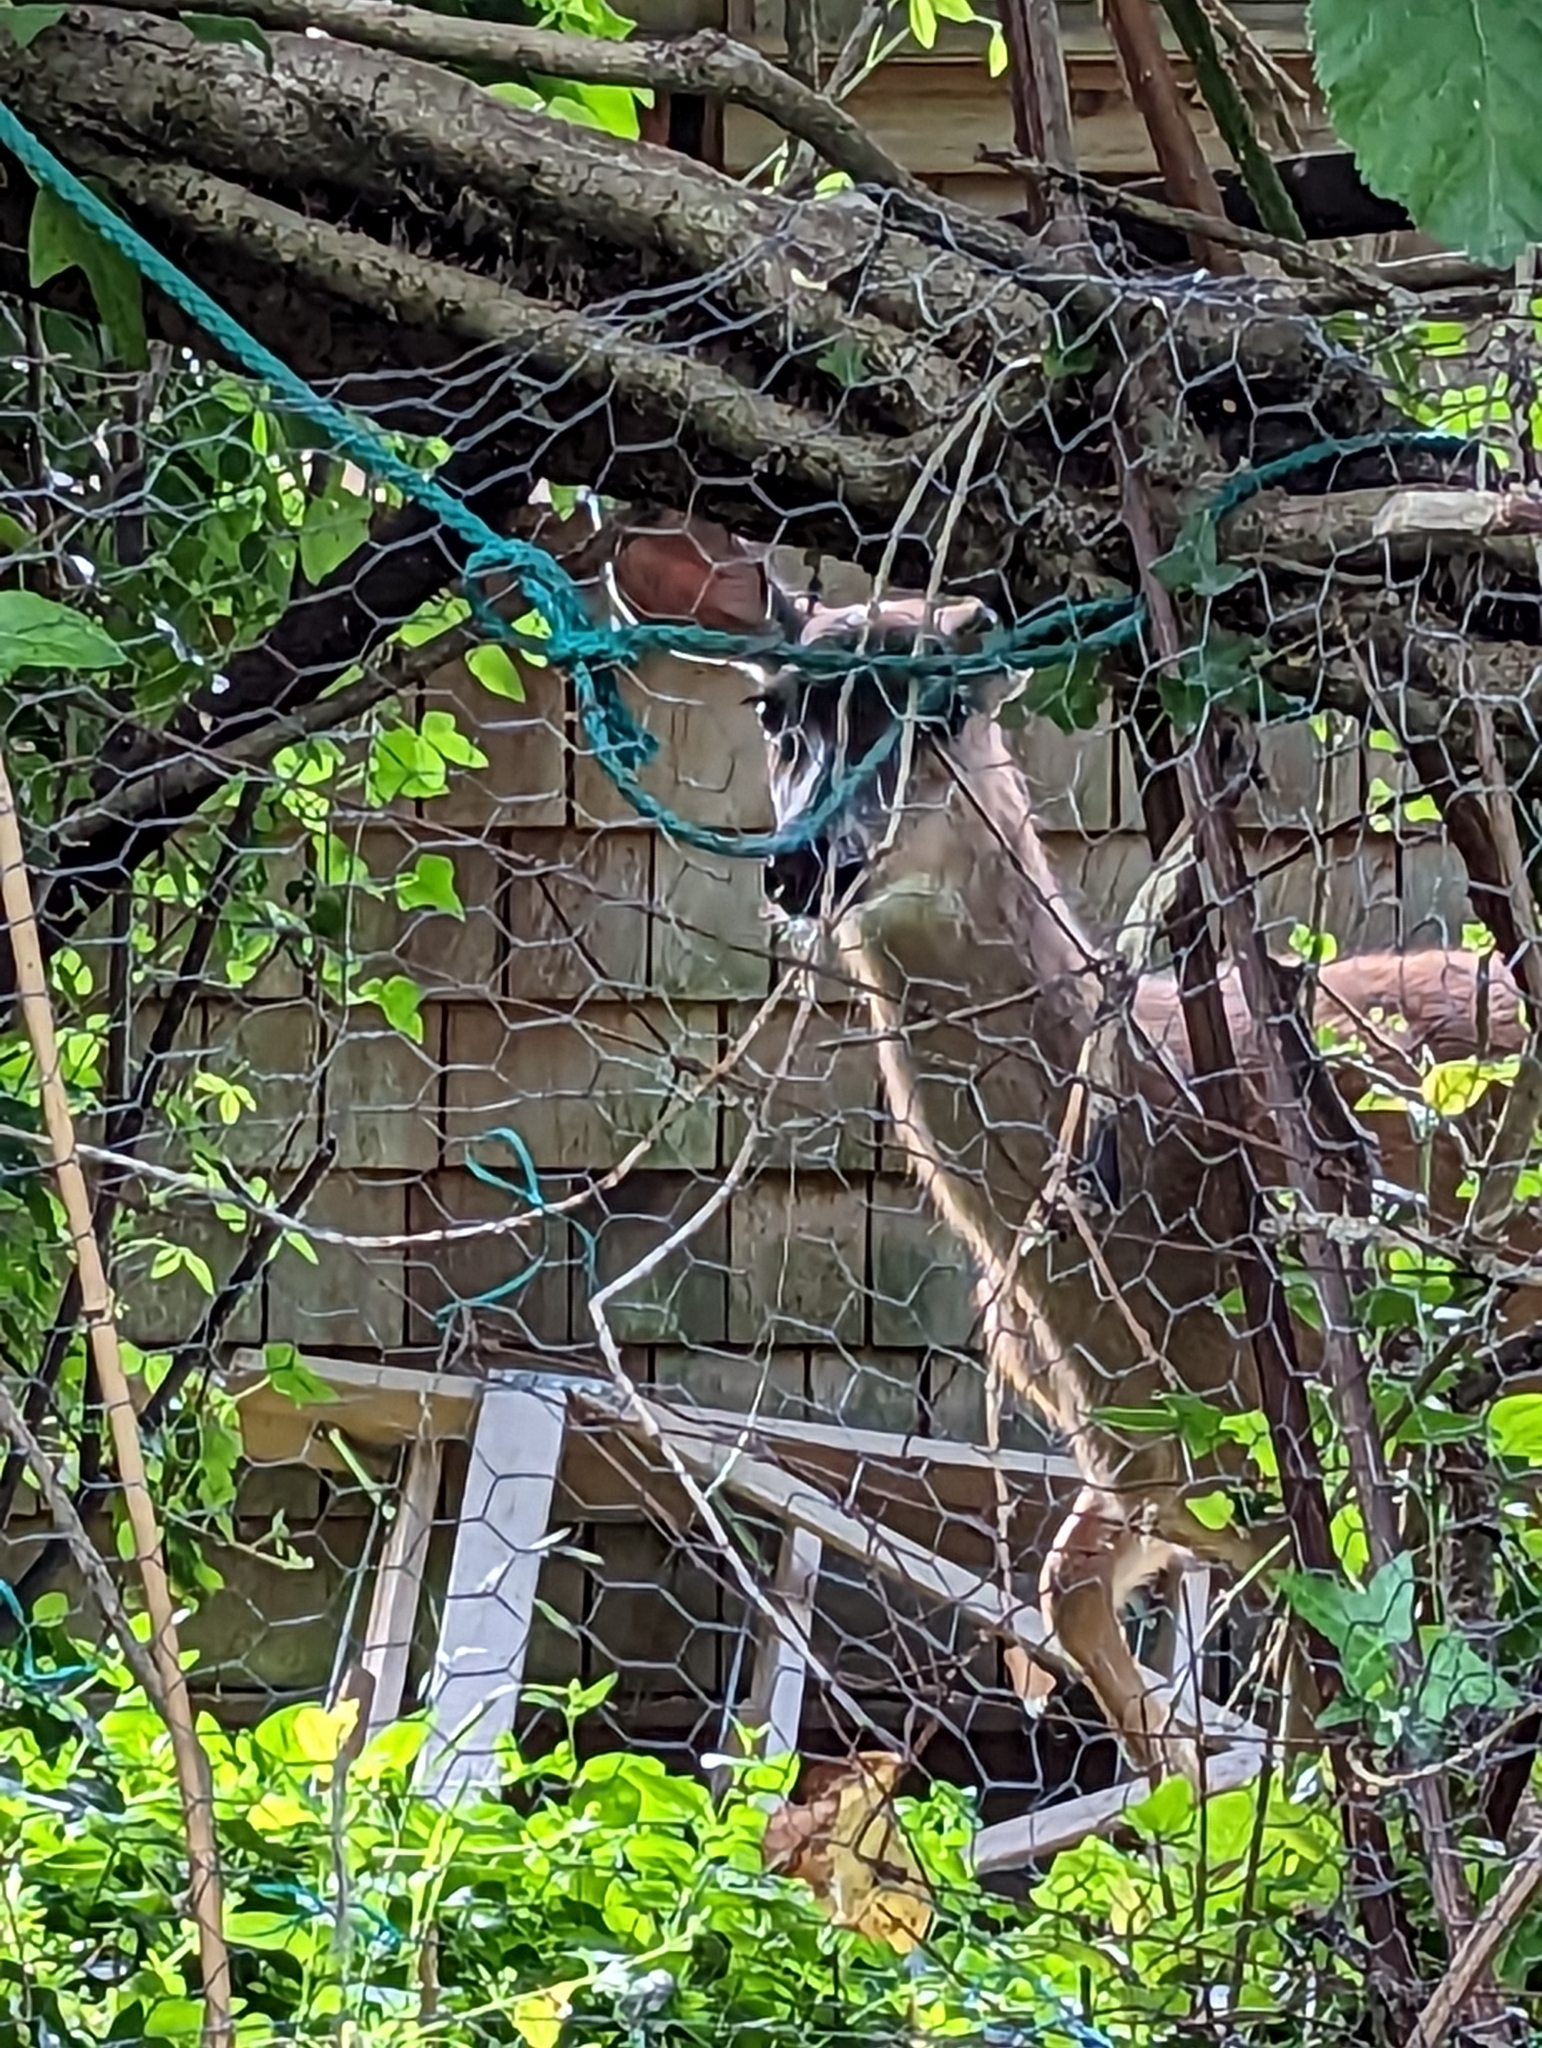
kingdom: Animalia
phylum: Chordata
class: Mammalia
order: Artiodactyla
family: Cervidae
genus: Odocoileus
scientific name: Odocoileus hemionus
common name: Mule deer
